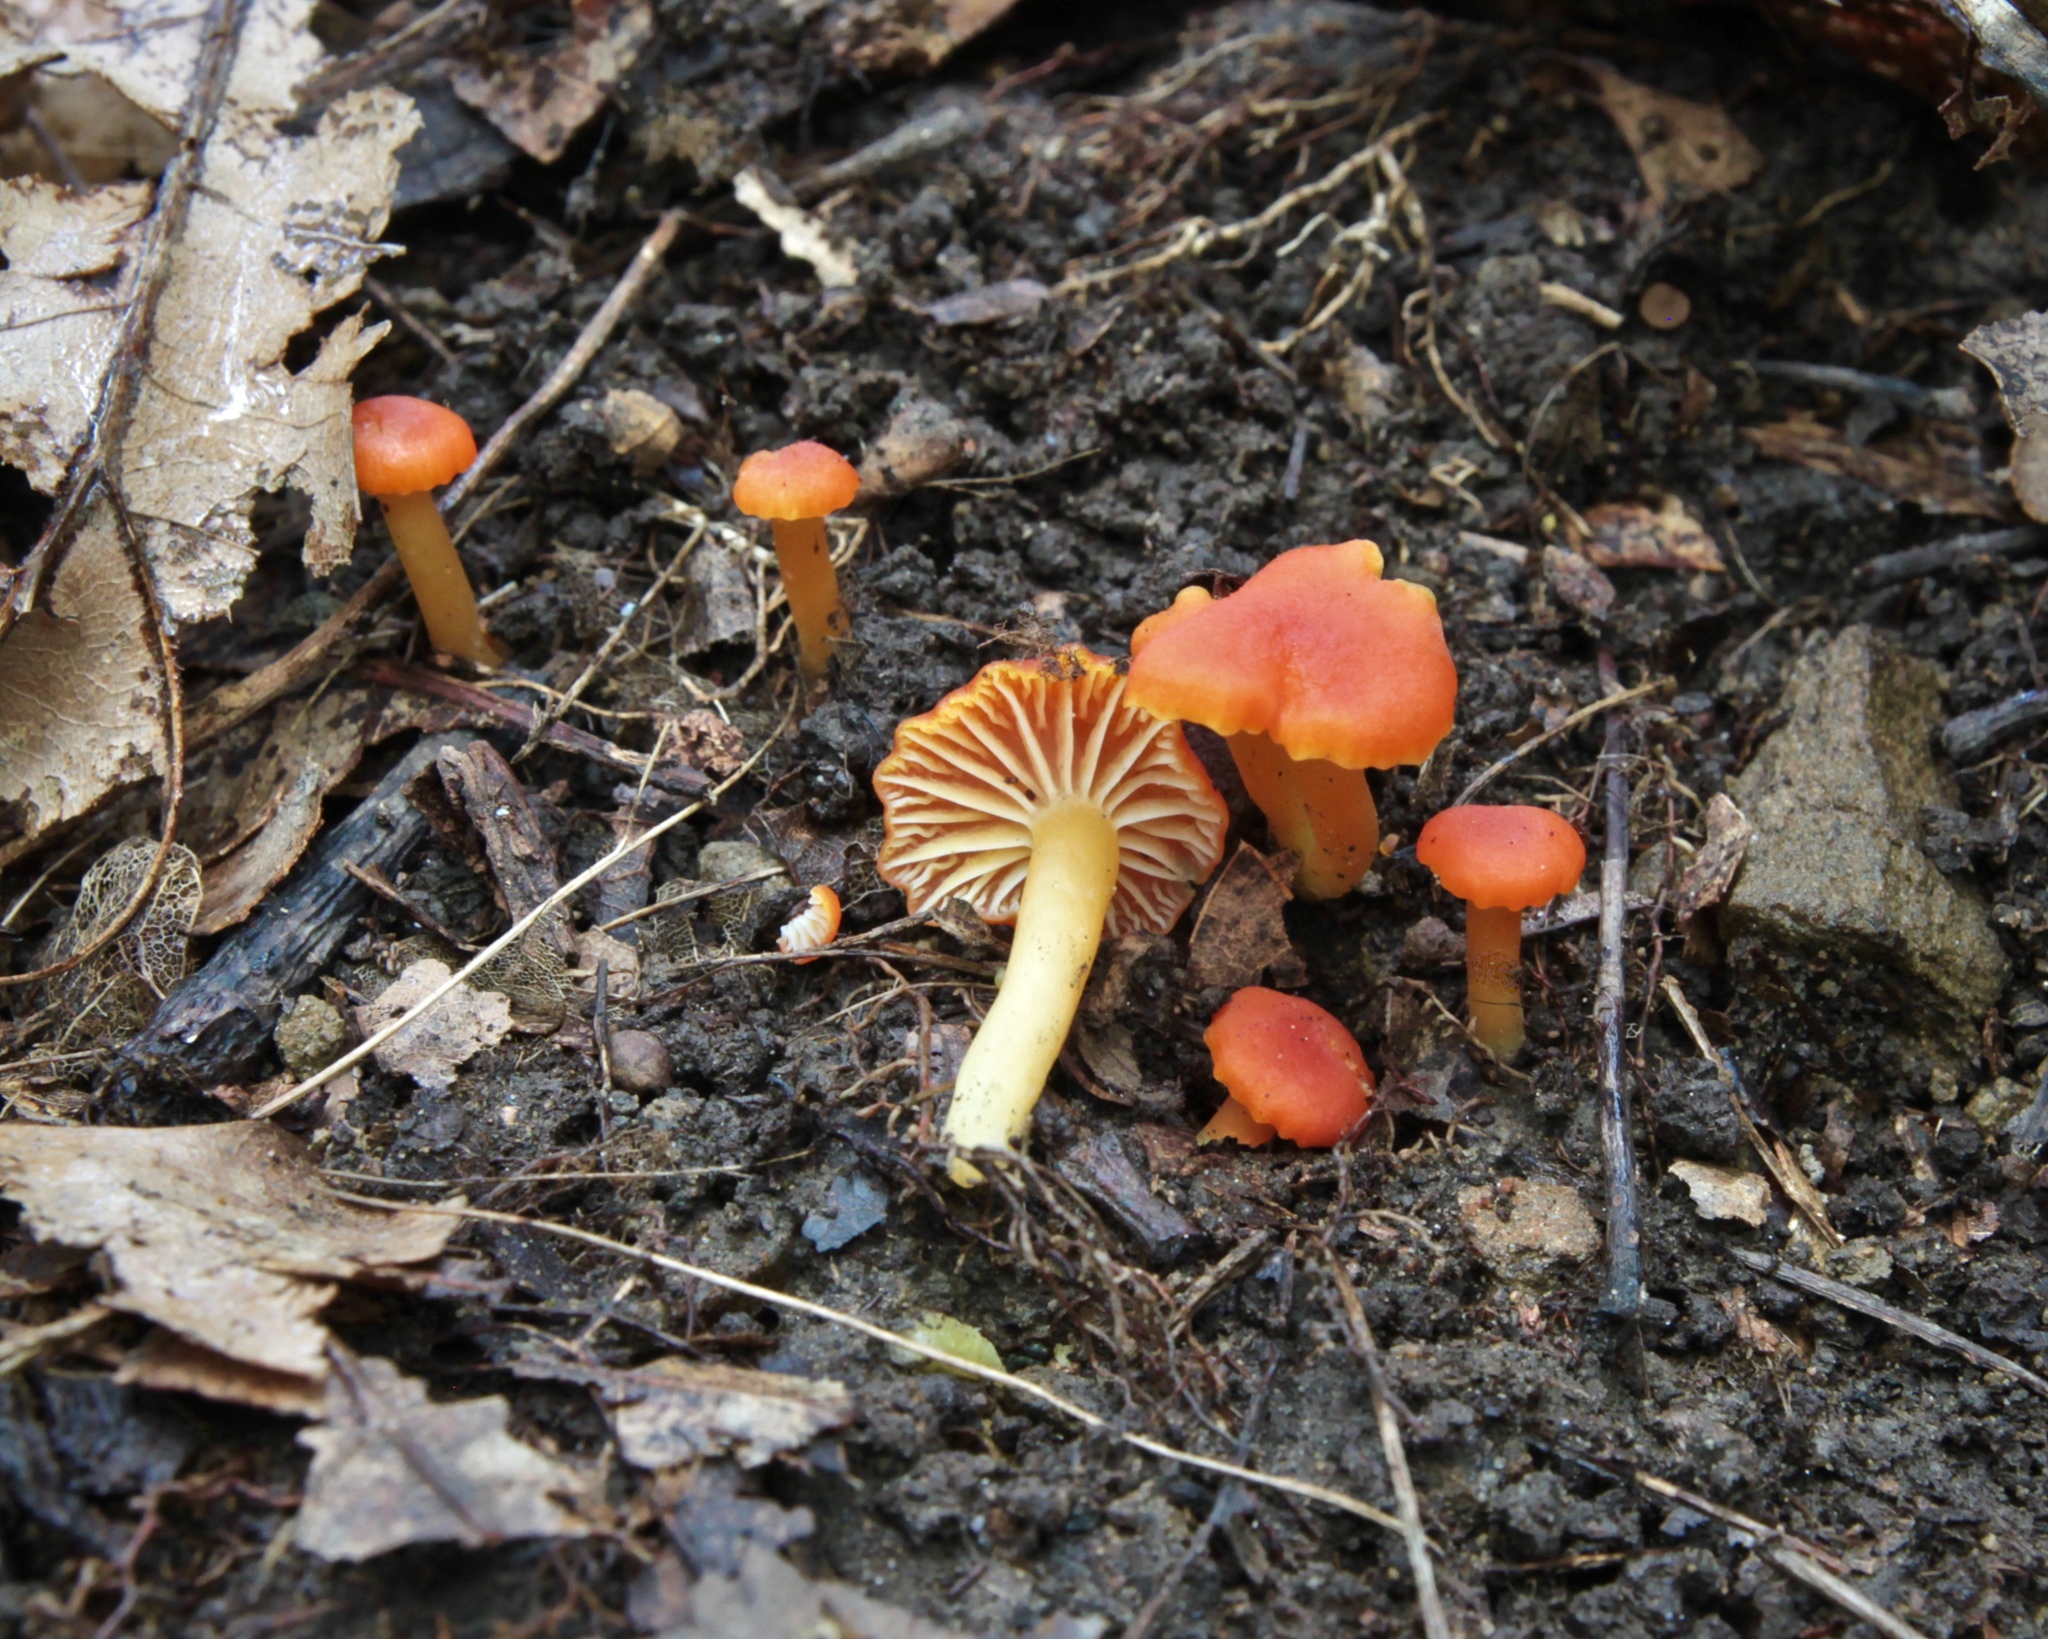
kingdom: Fungi
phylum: Basidiomycota
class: Agaricomycetes
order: Agaricales
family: Hygrophoraceae
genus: Hygrocybe
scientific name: Hygrocybe miniata
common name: Vermilion waxcap
